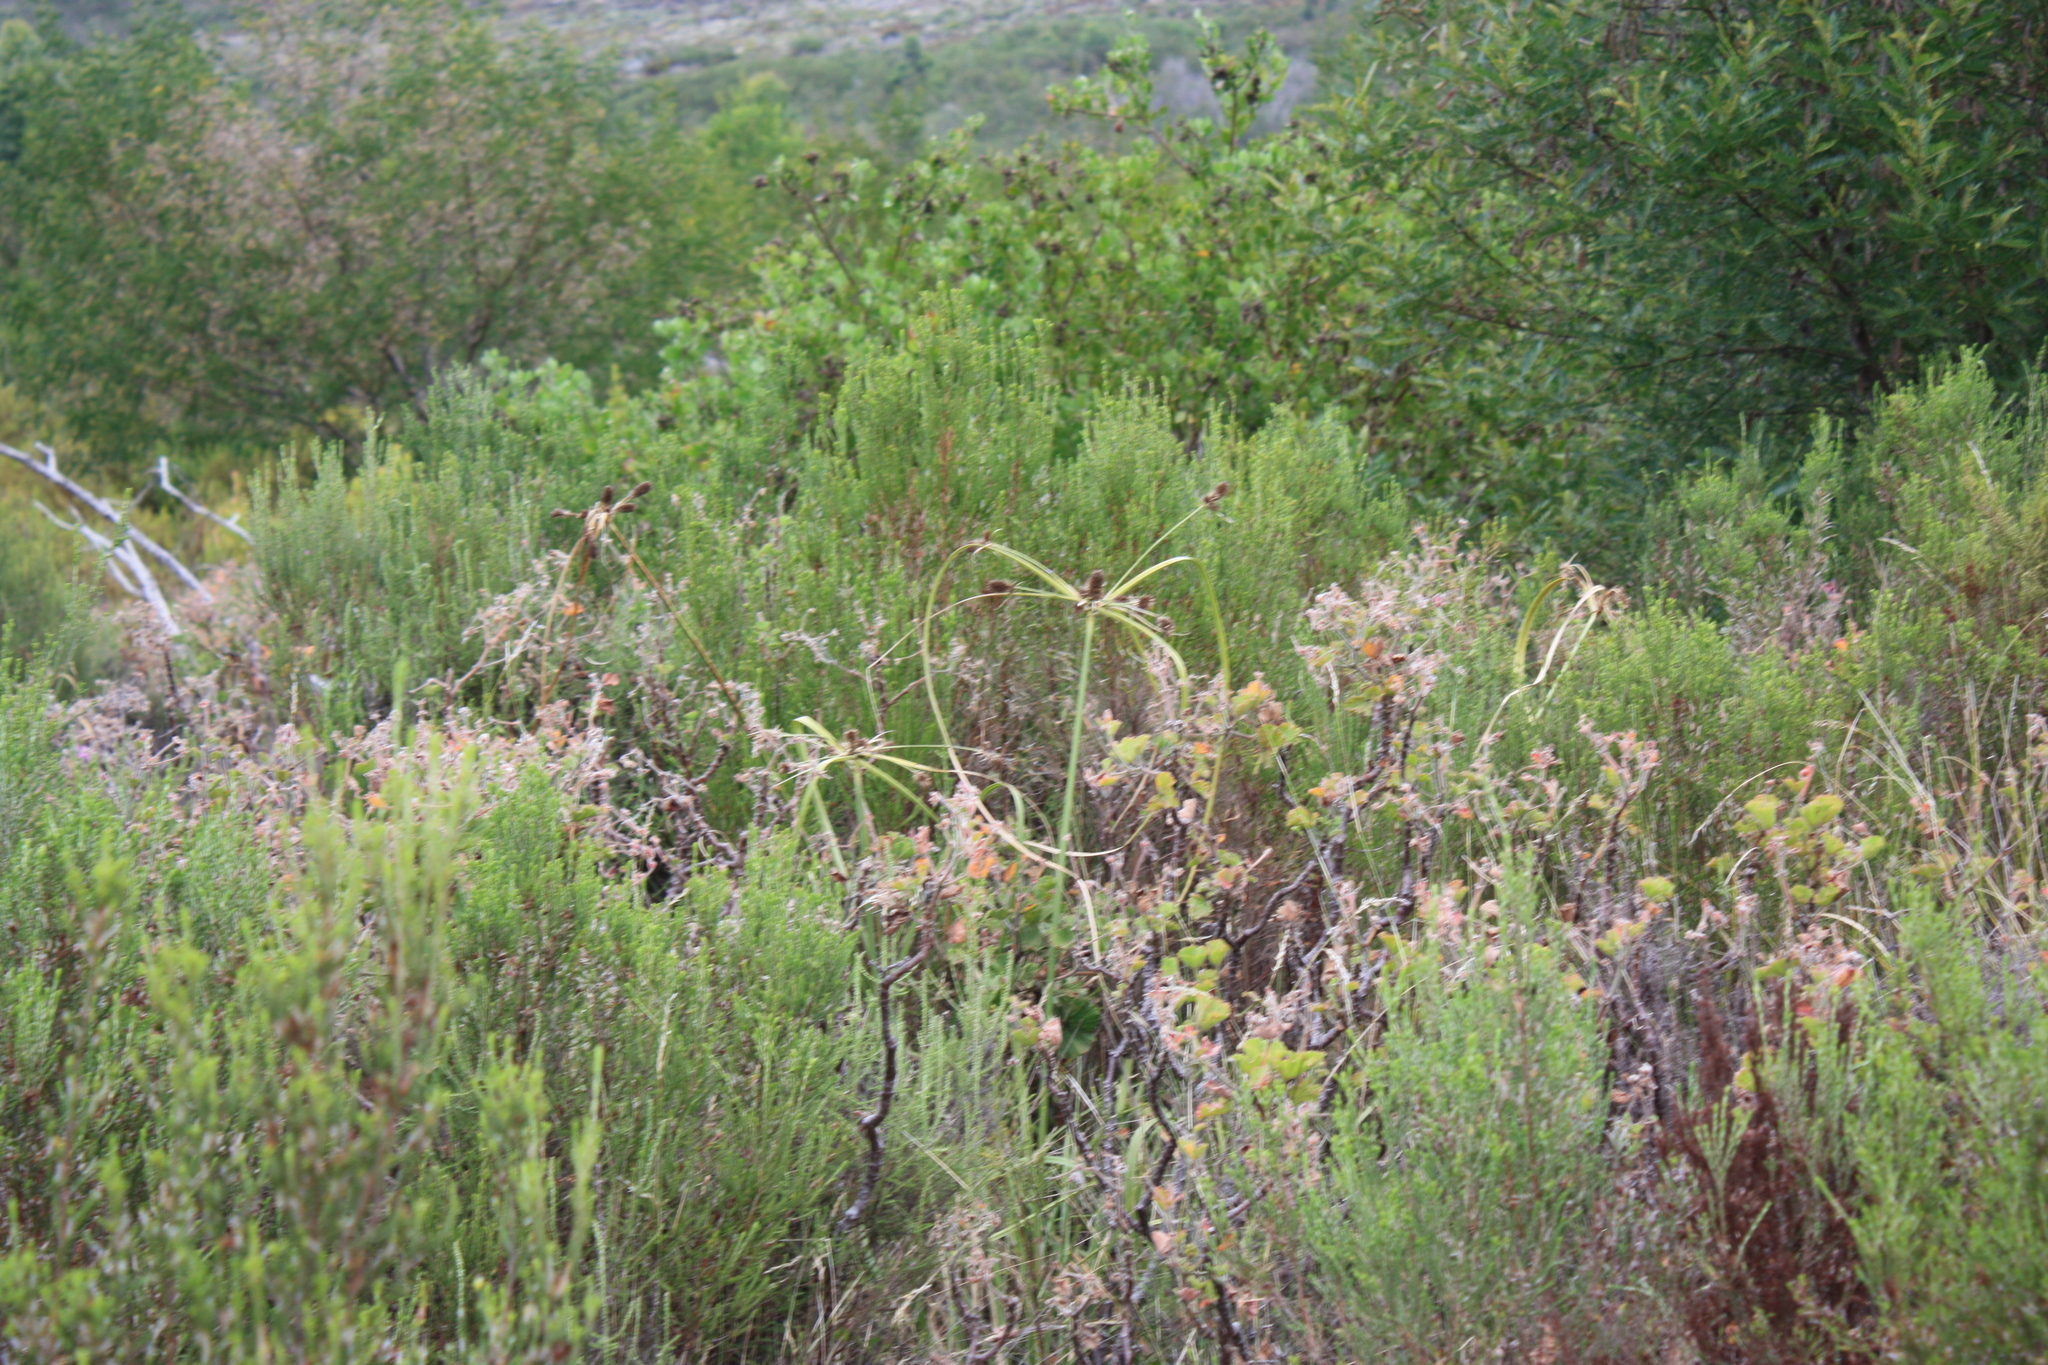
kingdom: Plantae
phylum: Tracheophyta
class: Liliopsida
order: Poales
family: Cyperaceae
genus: Cyperus
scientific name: Cyperus thunbergii
